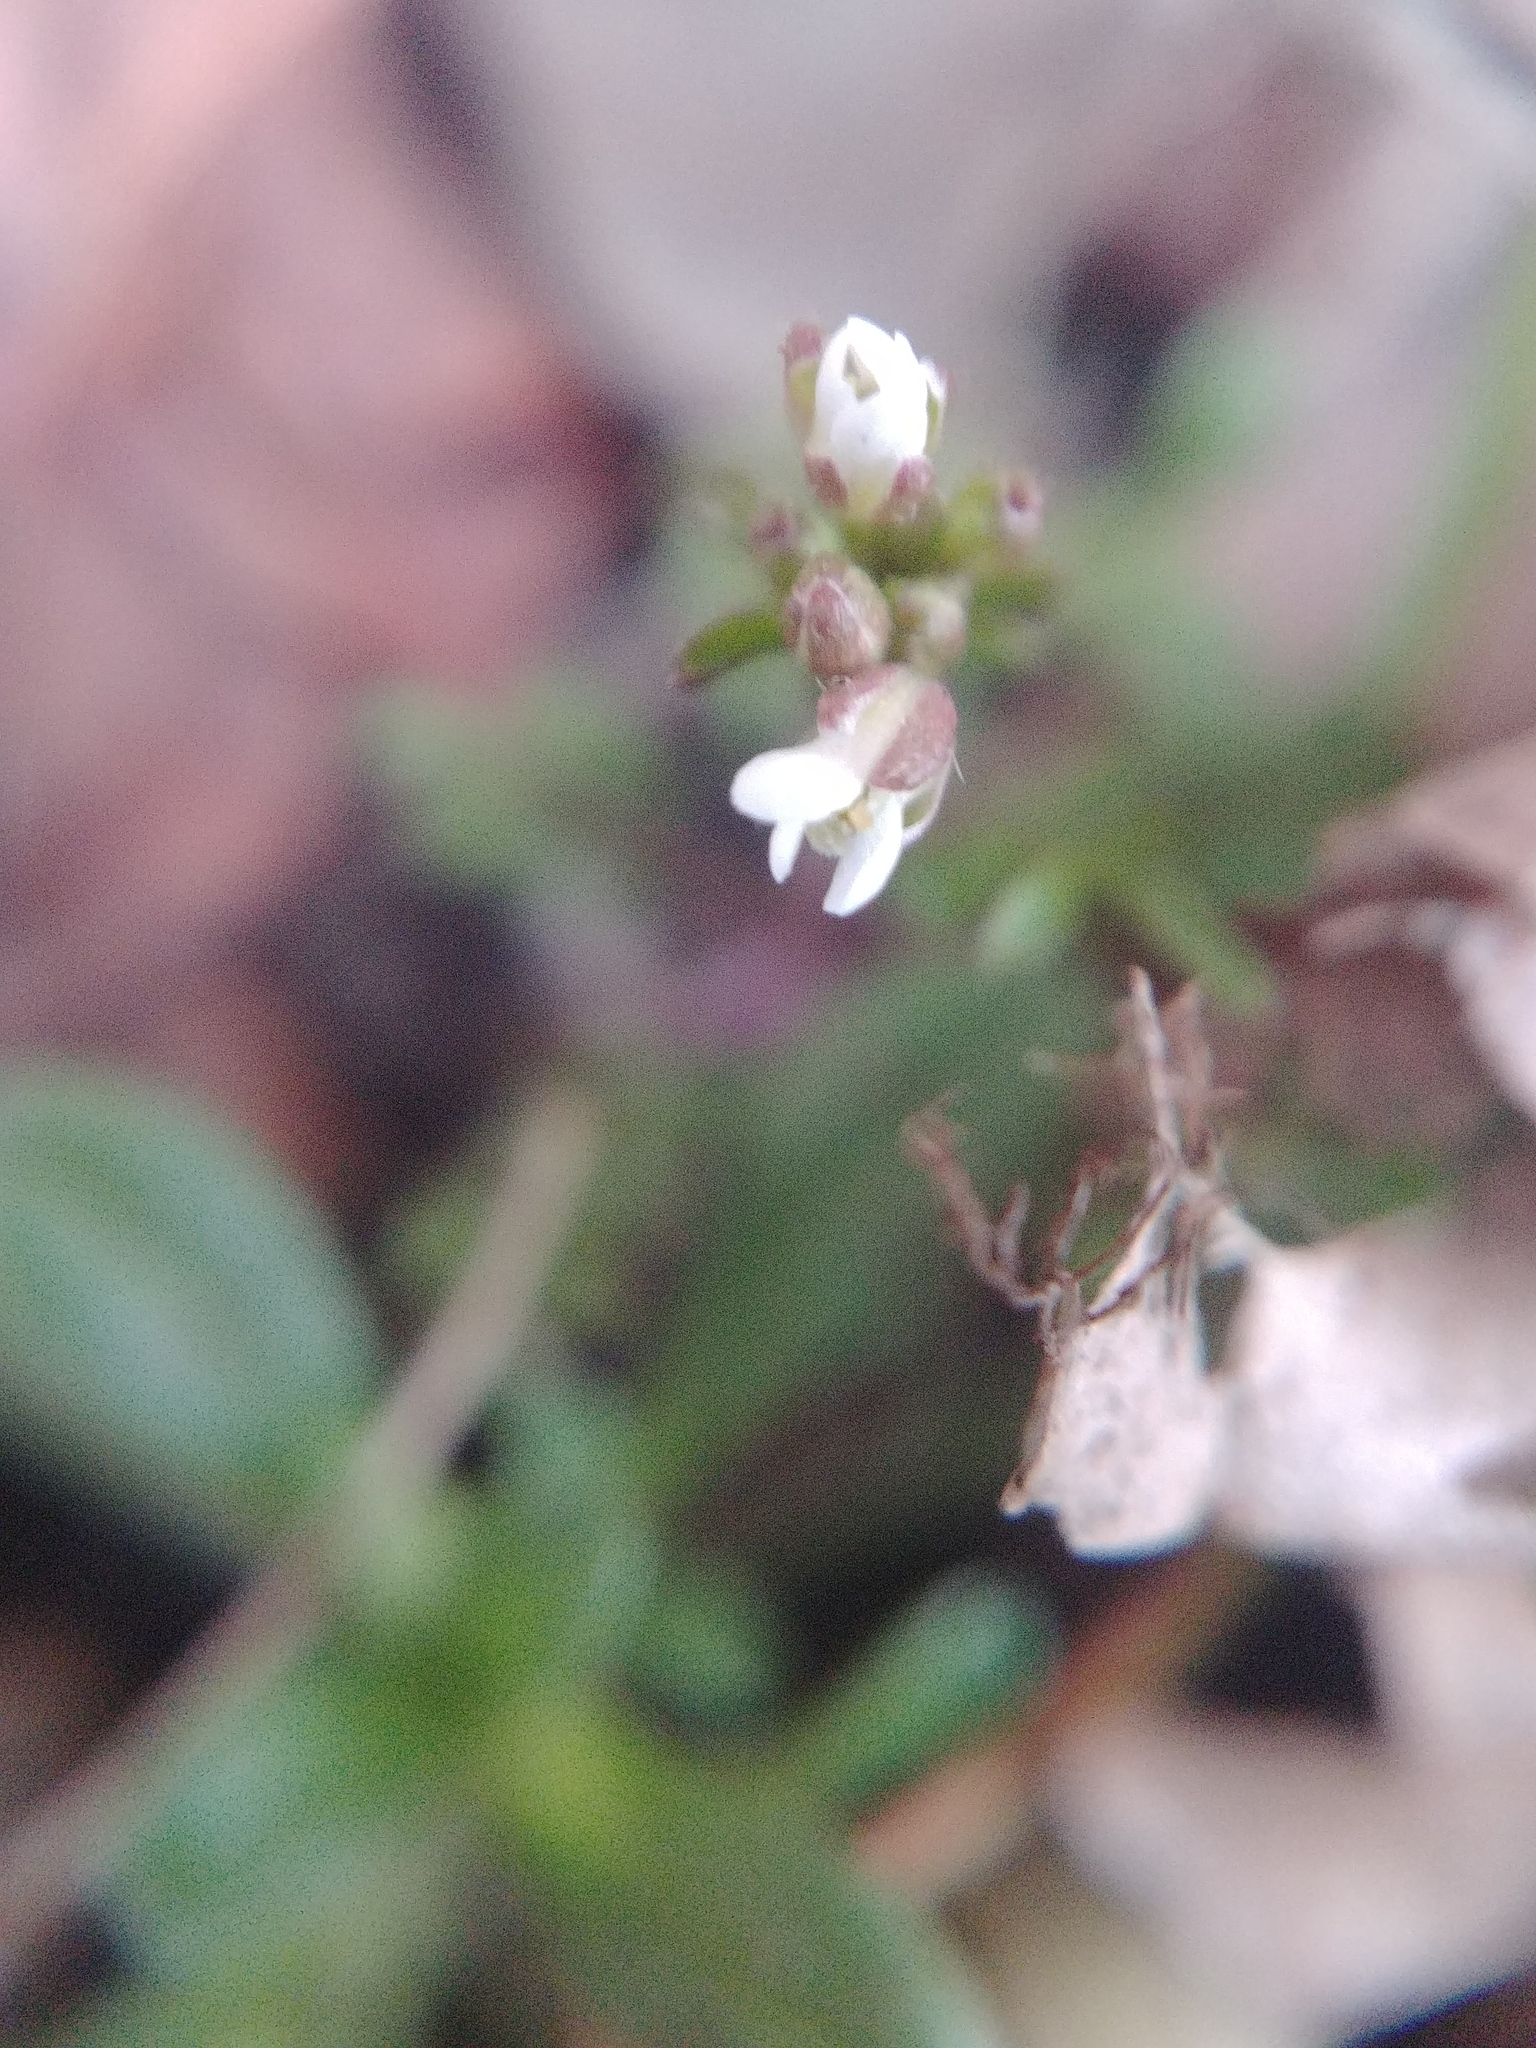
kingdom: Plantae
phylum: Tracheophyta
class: Magnoliopsida
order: Brassicales
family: Brassicaceae
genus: Cardamine
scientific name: Cardamine hirsuta
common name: Hairy bittercress
